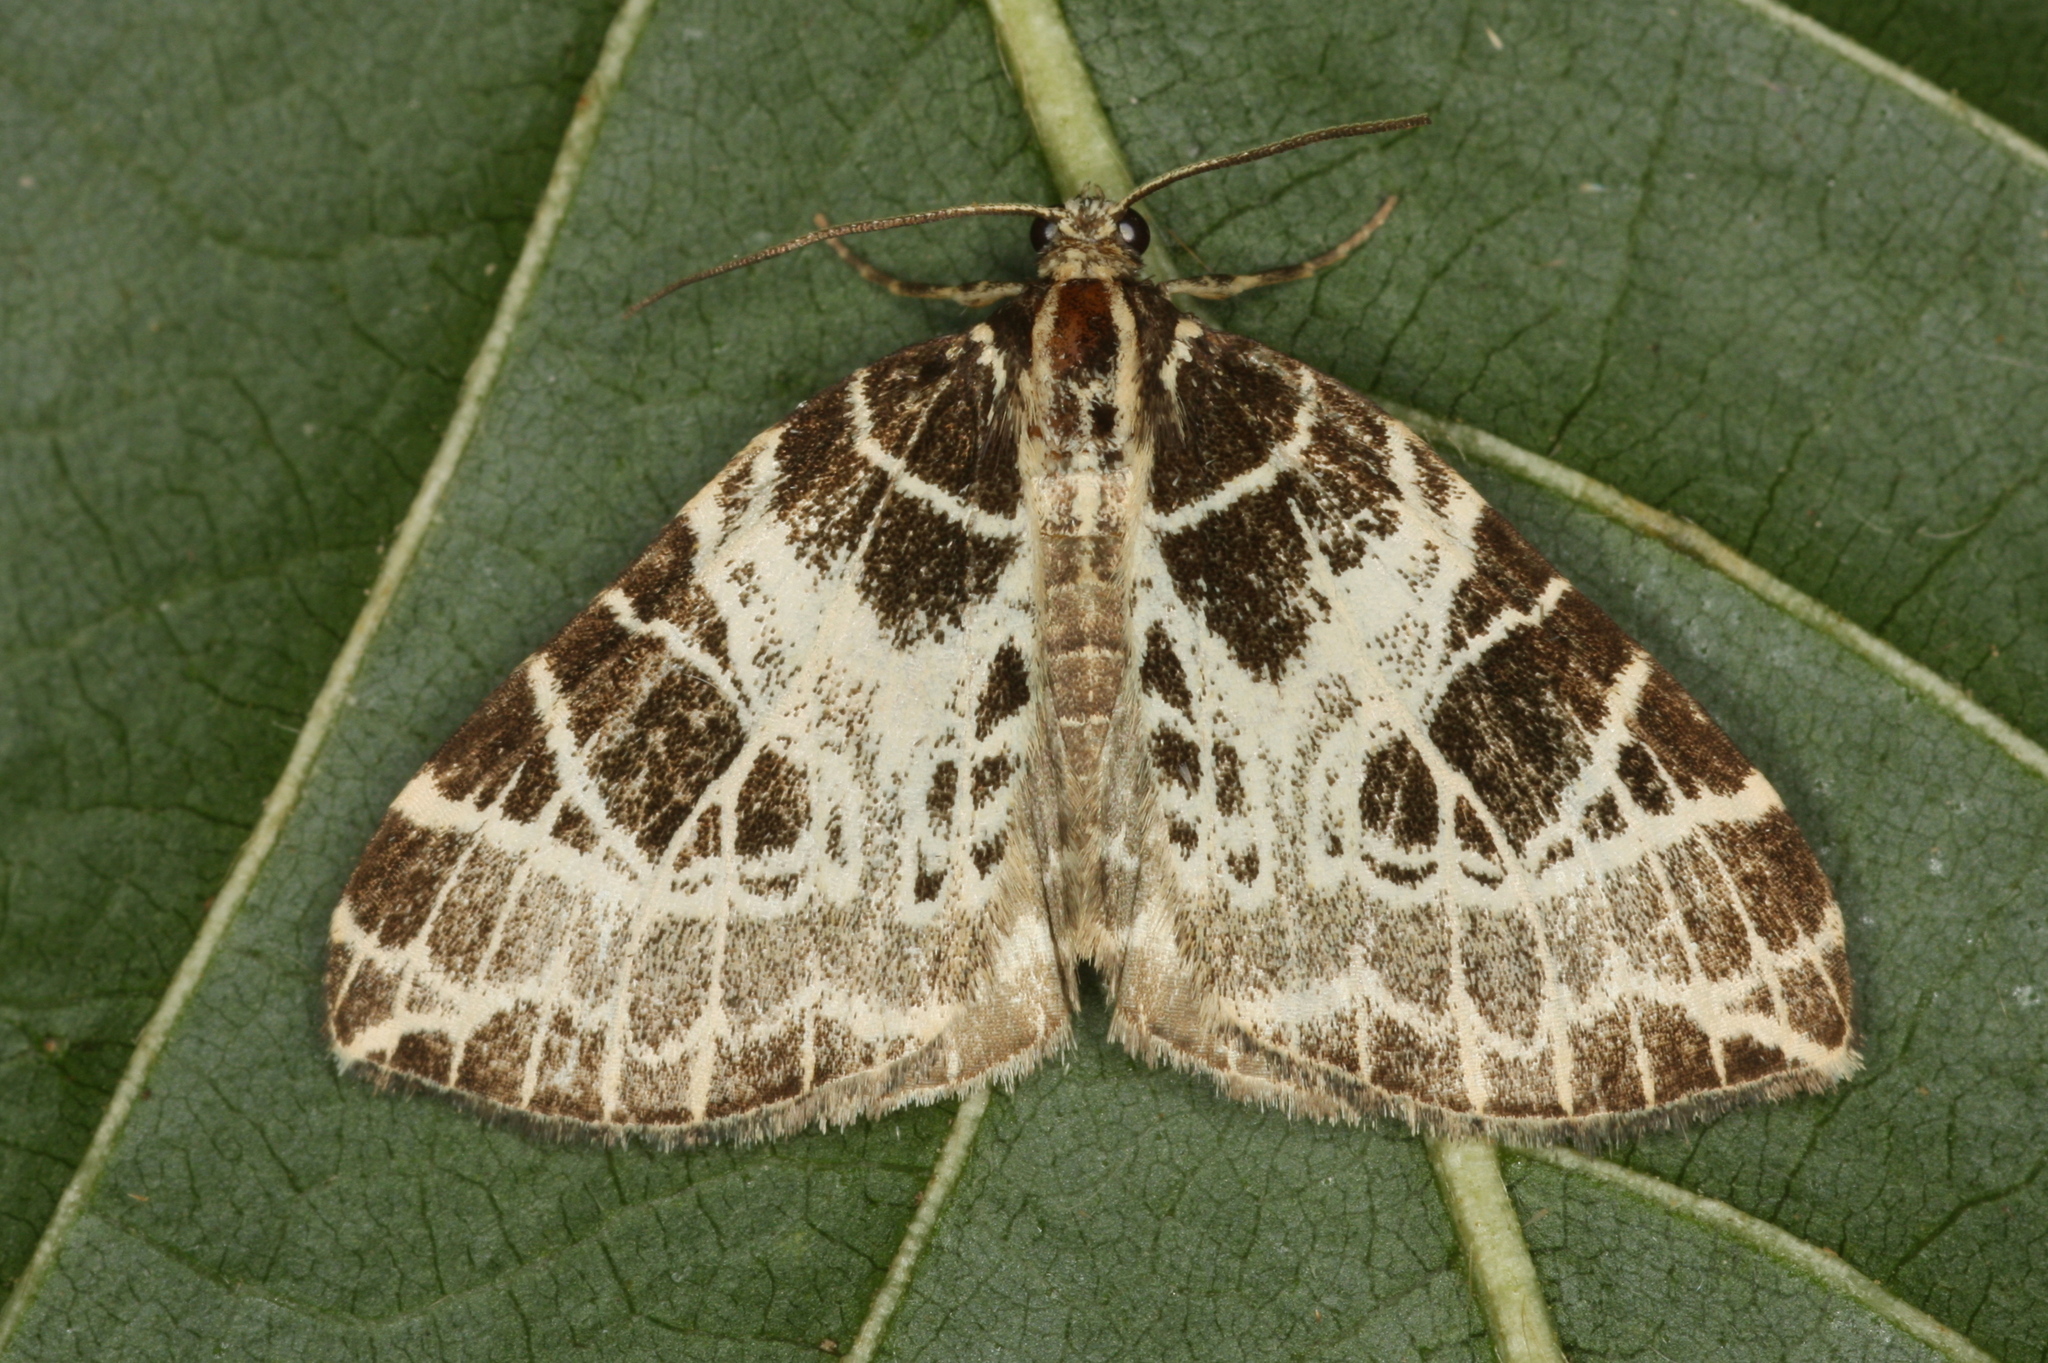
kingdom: Animalia
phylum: Arthropoda
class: Insecta
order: Lepidoptera
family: Geometridae
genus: Eustroma
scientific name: Eustroma reticulata
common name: Netted carpet
